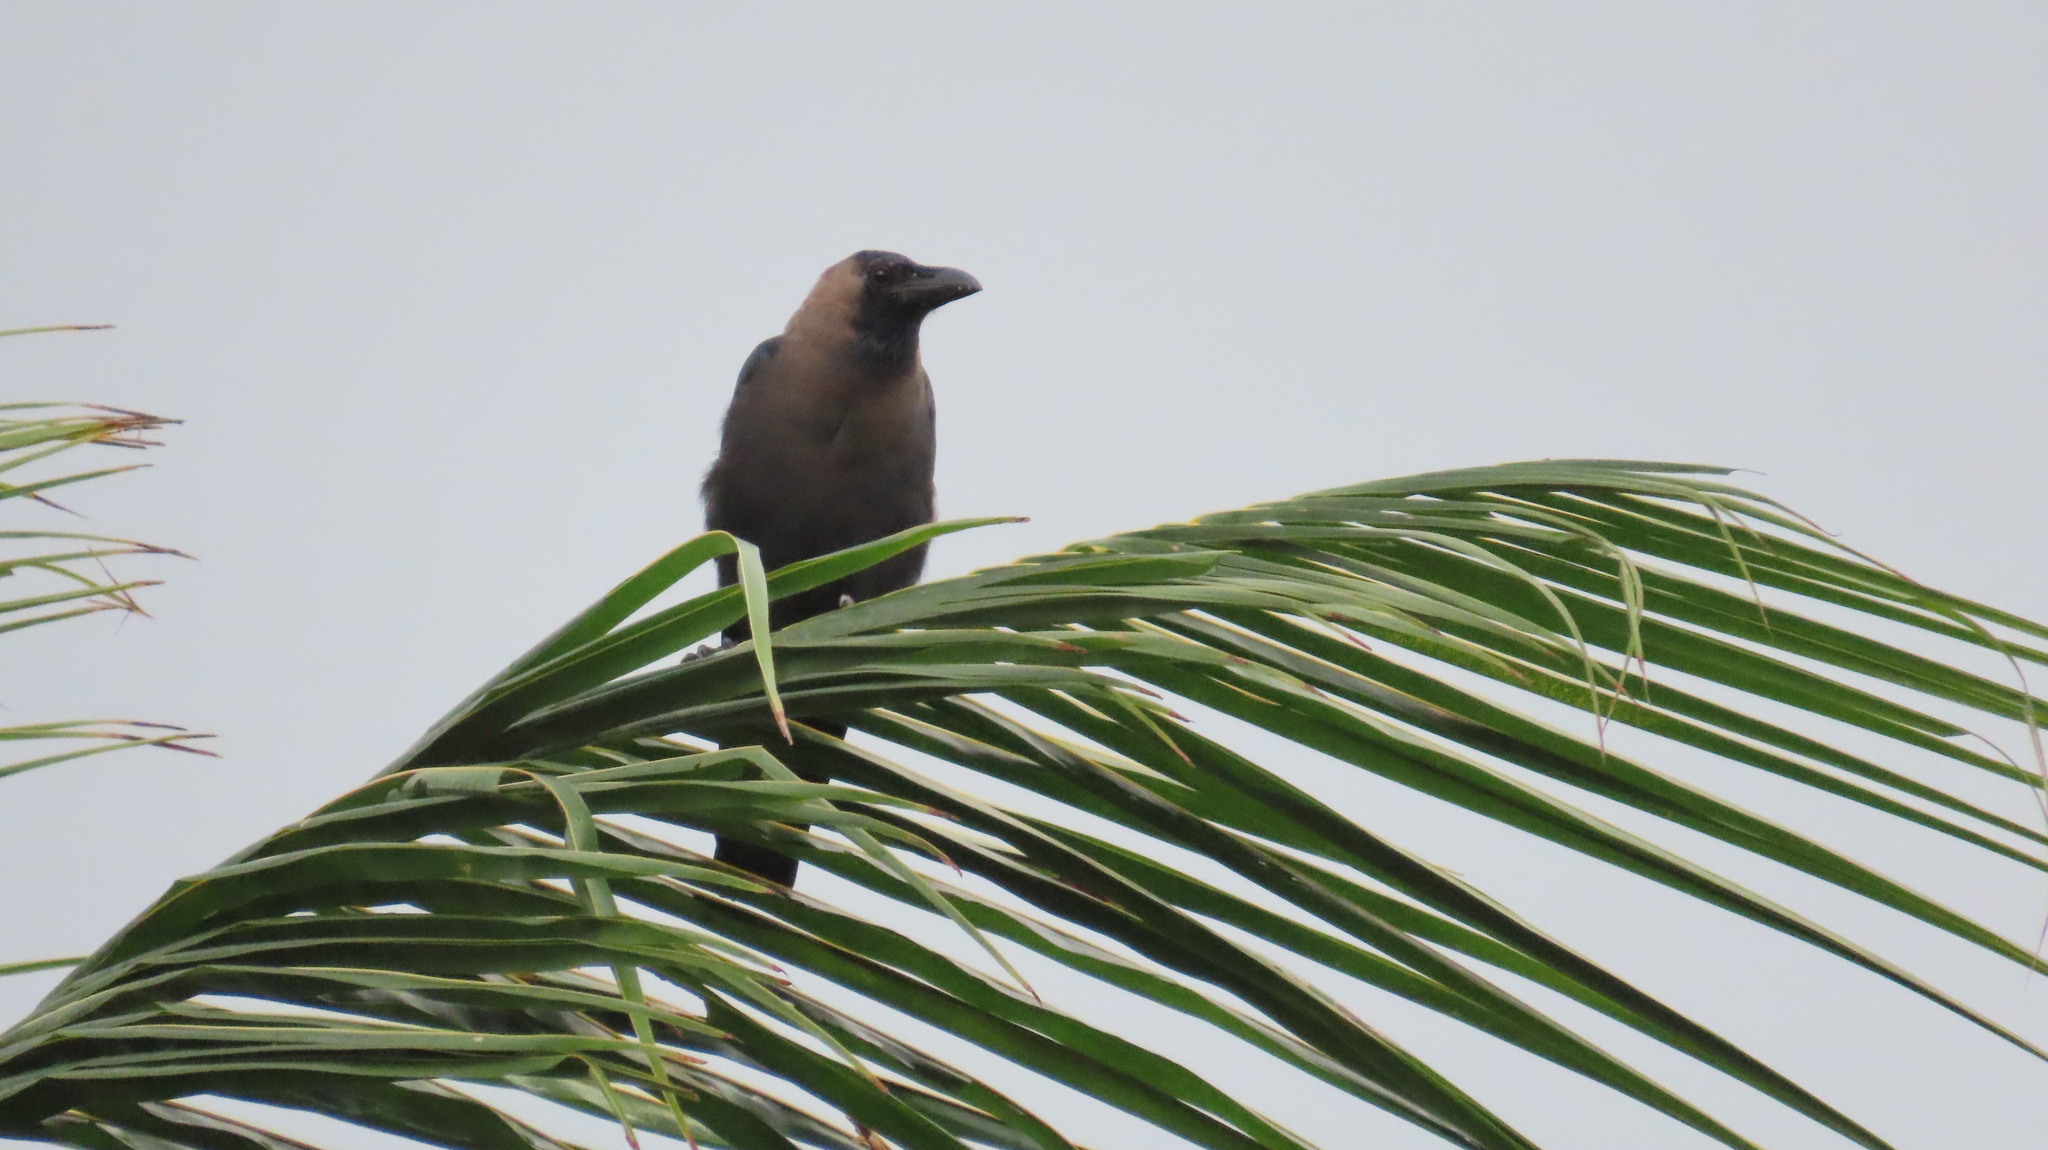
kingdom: Animalia
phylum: Chordata
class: Aves
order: Passeriformes
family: Corvidae
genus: Corvus
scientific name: Corvus splendens
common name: House crow
